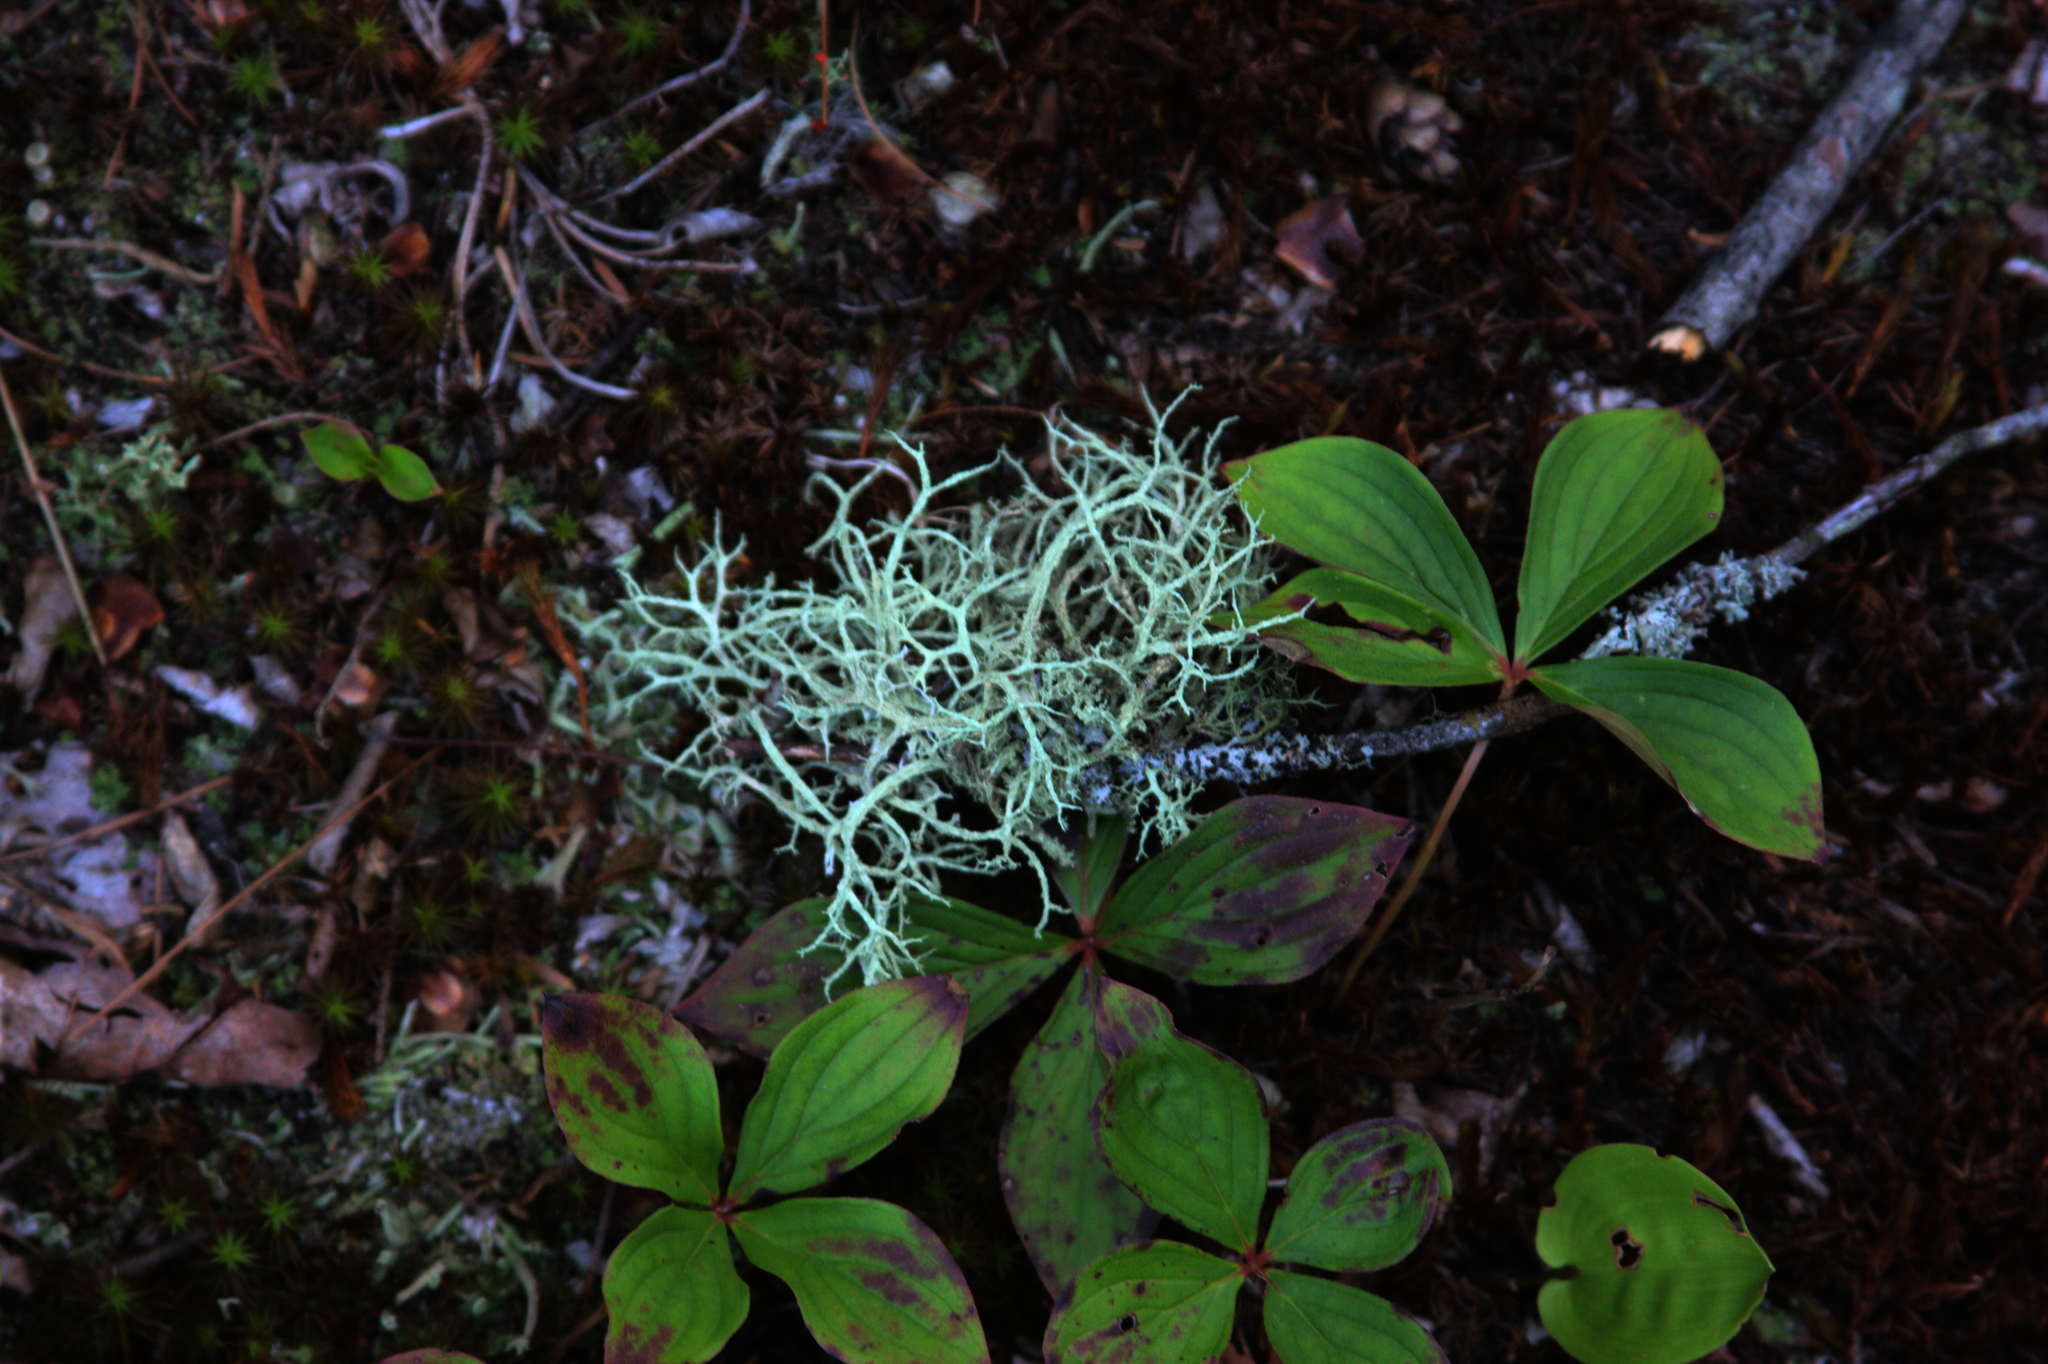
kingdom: Plantae
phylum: Tracheophyta
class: Magnoliopsida
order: Cornales
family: Cornaceae
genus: Cornus
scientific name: Cornus canadensis
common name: Creeping dogwood
